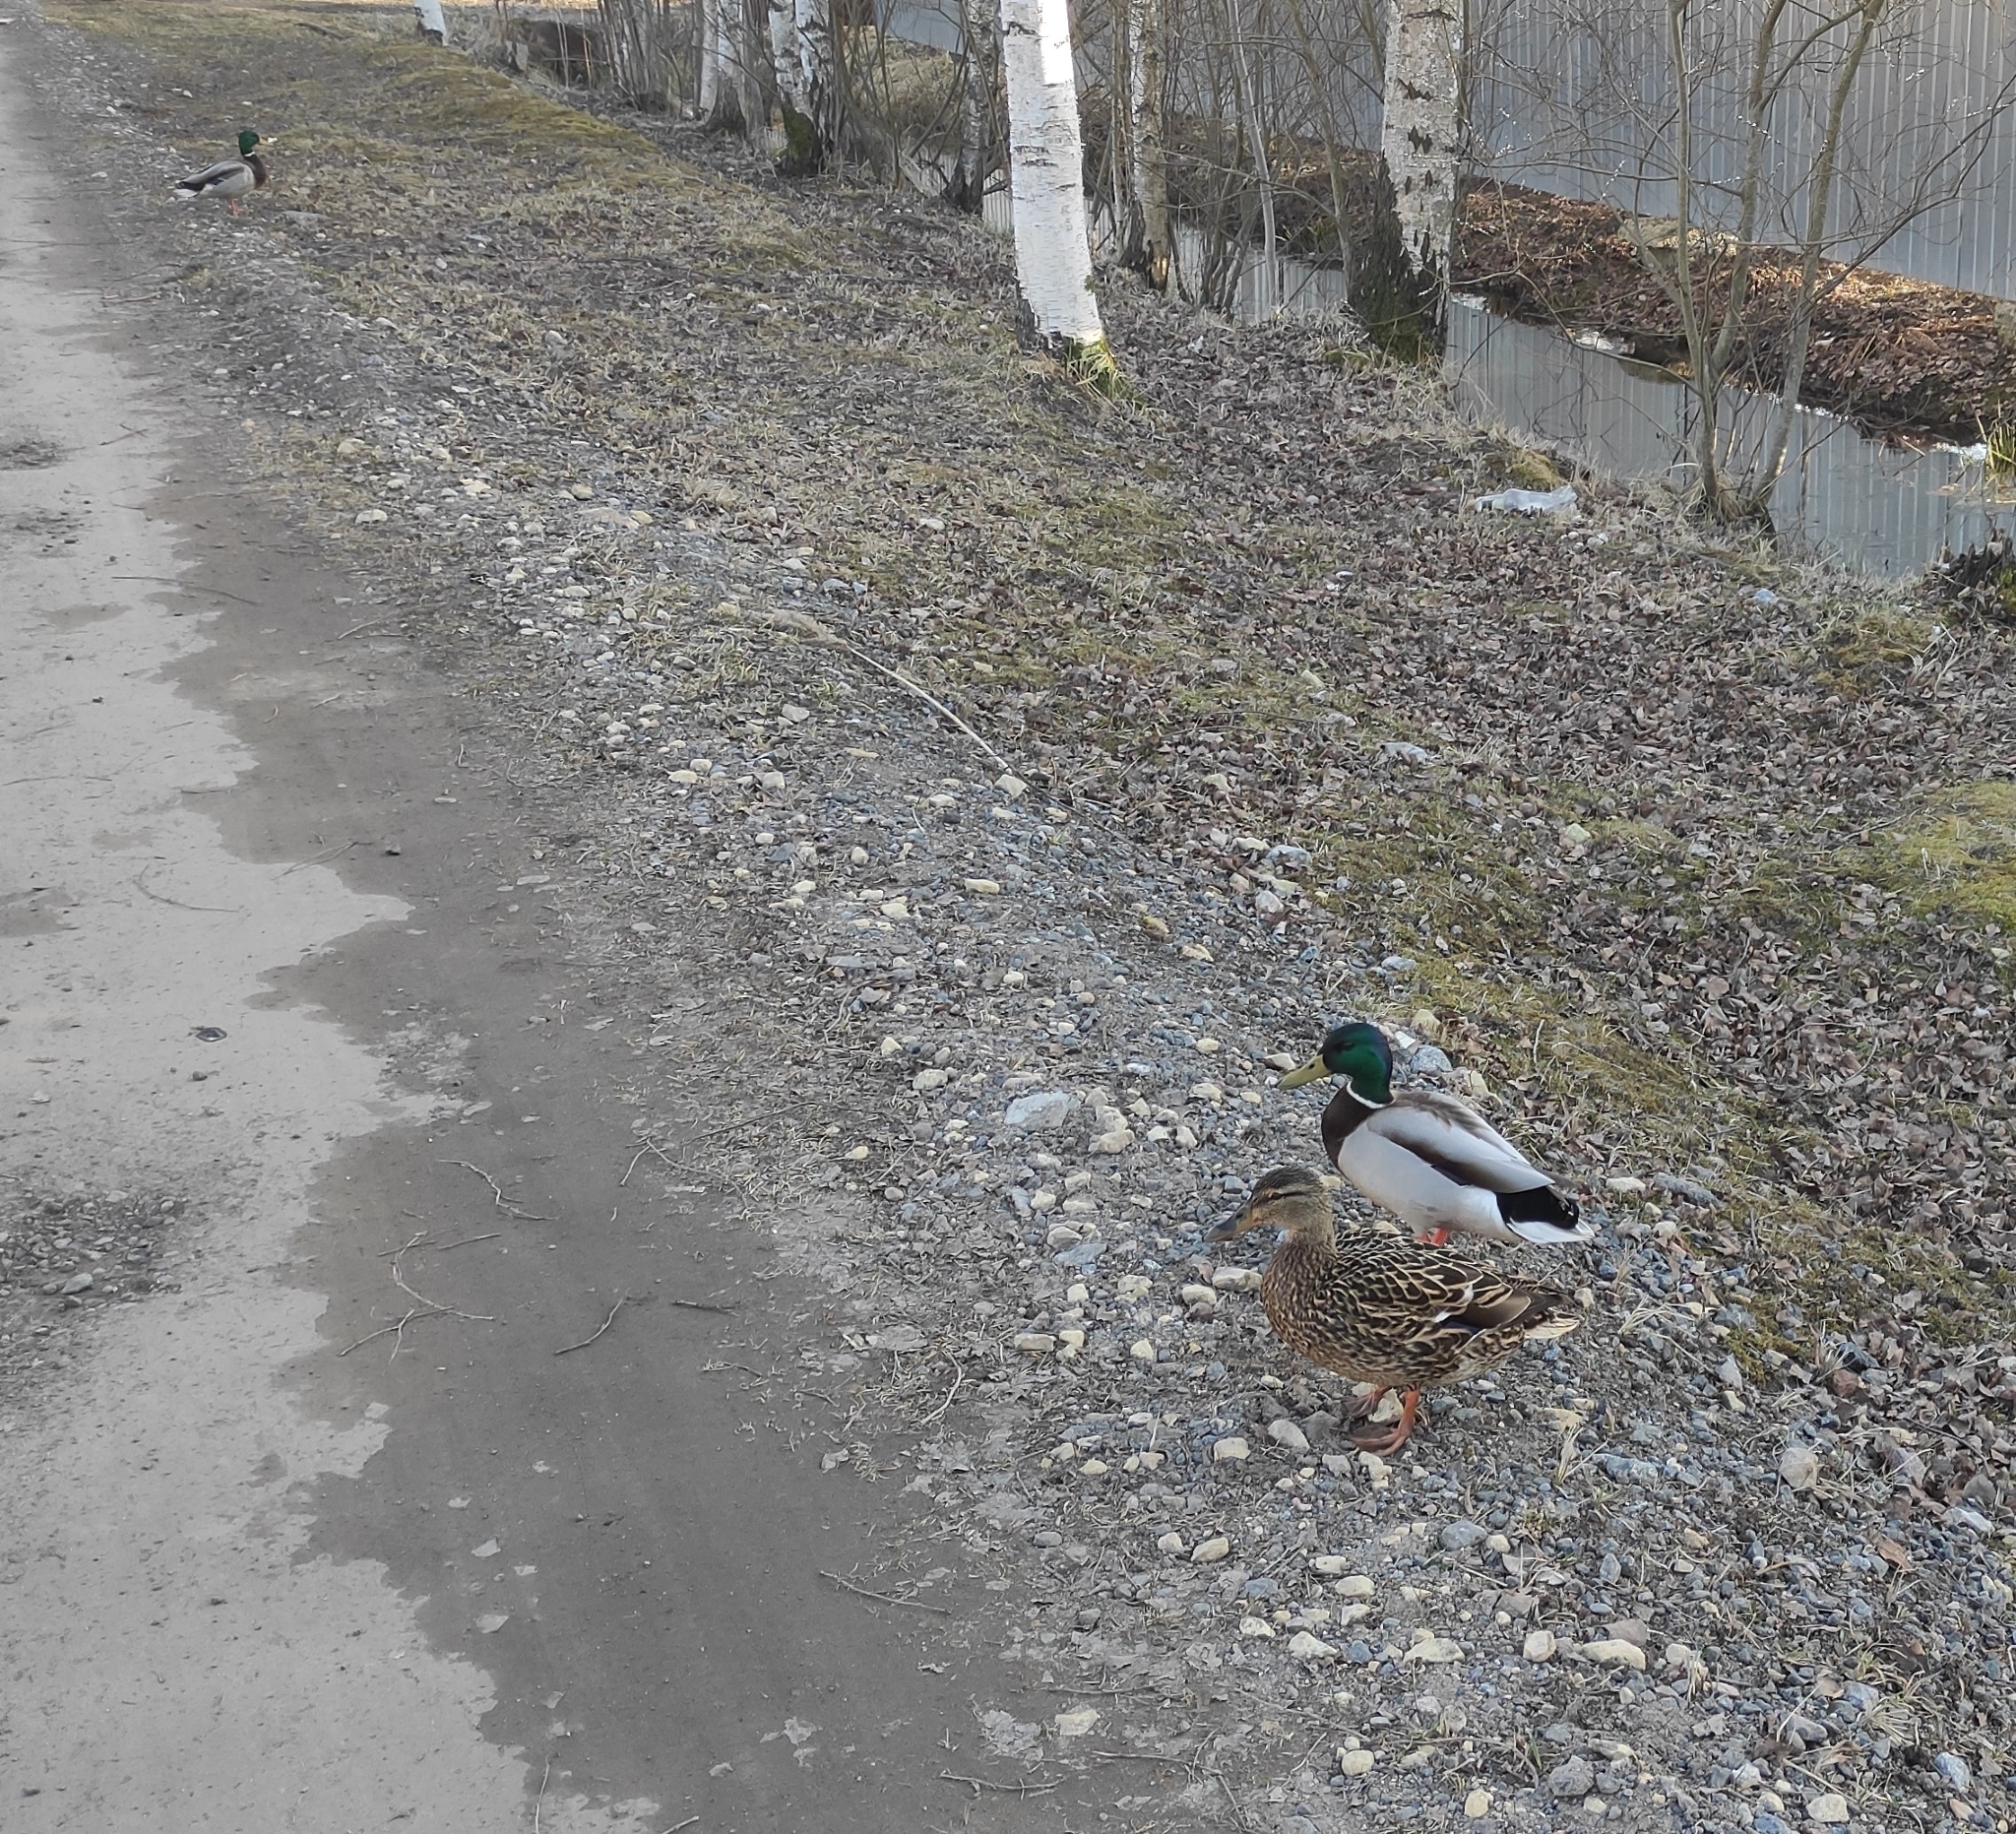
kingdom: Animalia
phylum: Chordata
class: Aves
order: Anseriformes
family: Anatidae
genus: Anas
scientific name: Anas platyrhynchos
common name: Mallard
